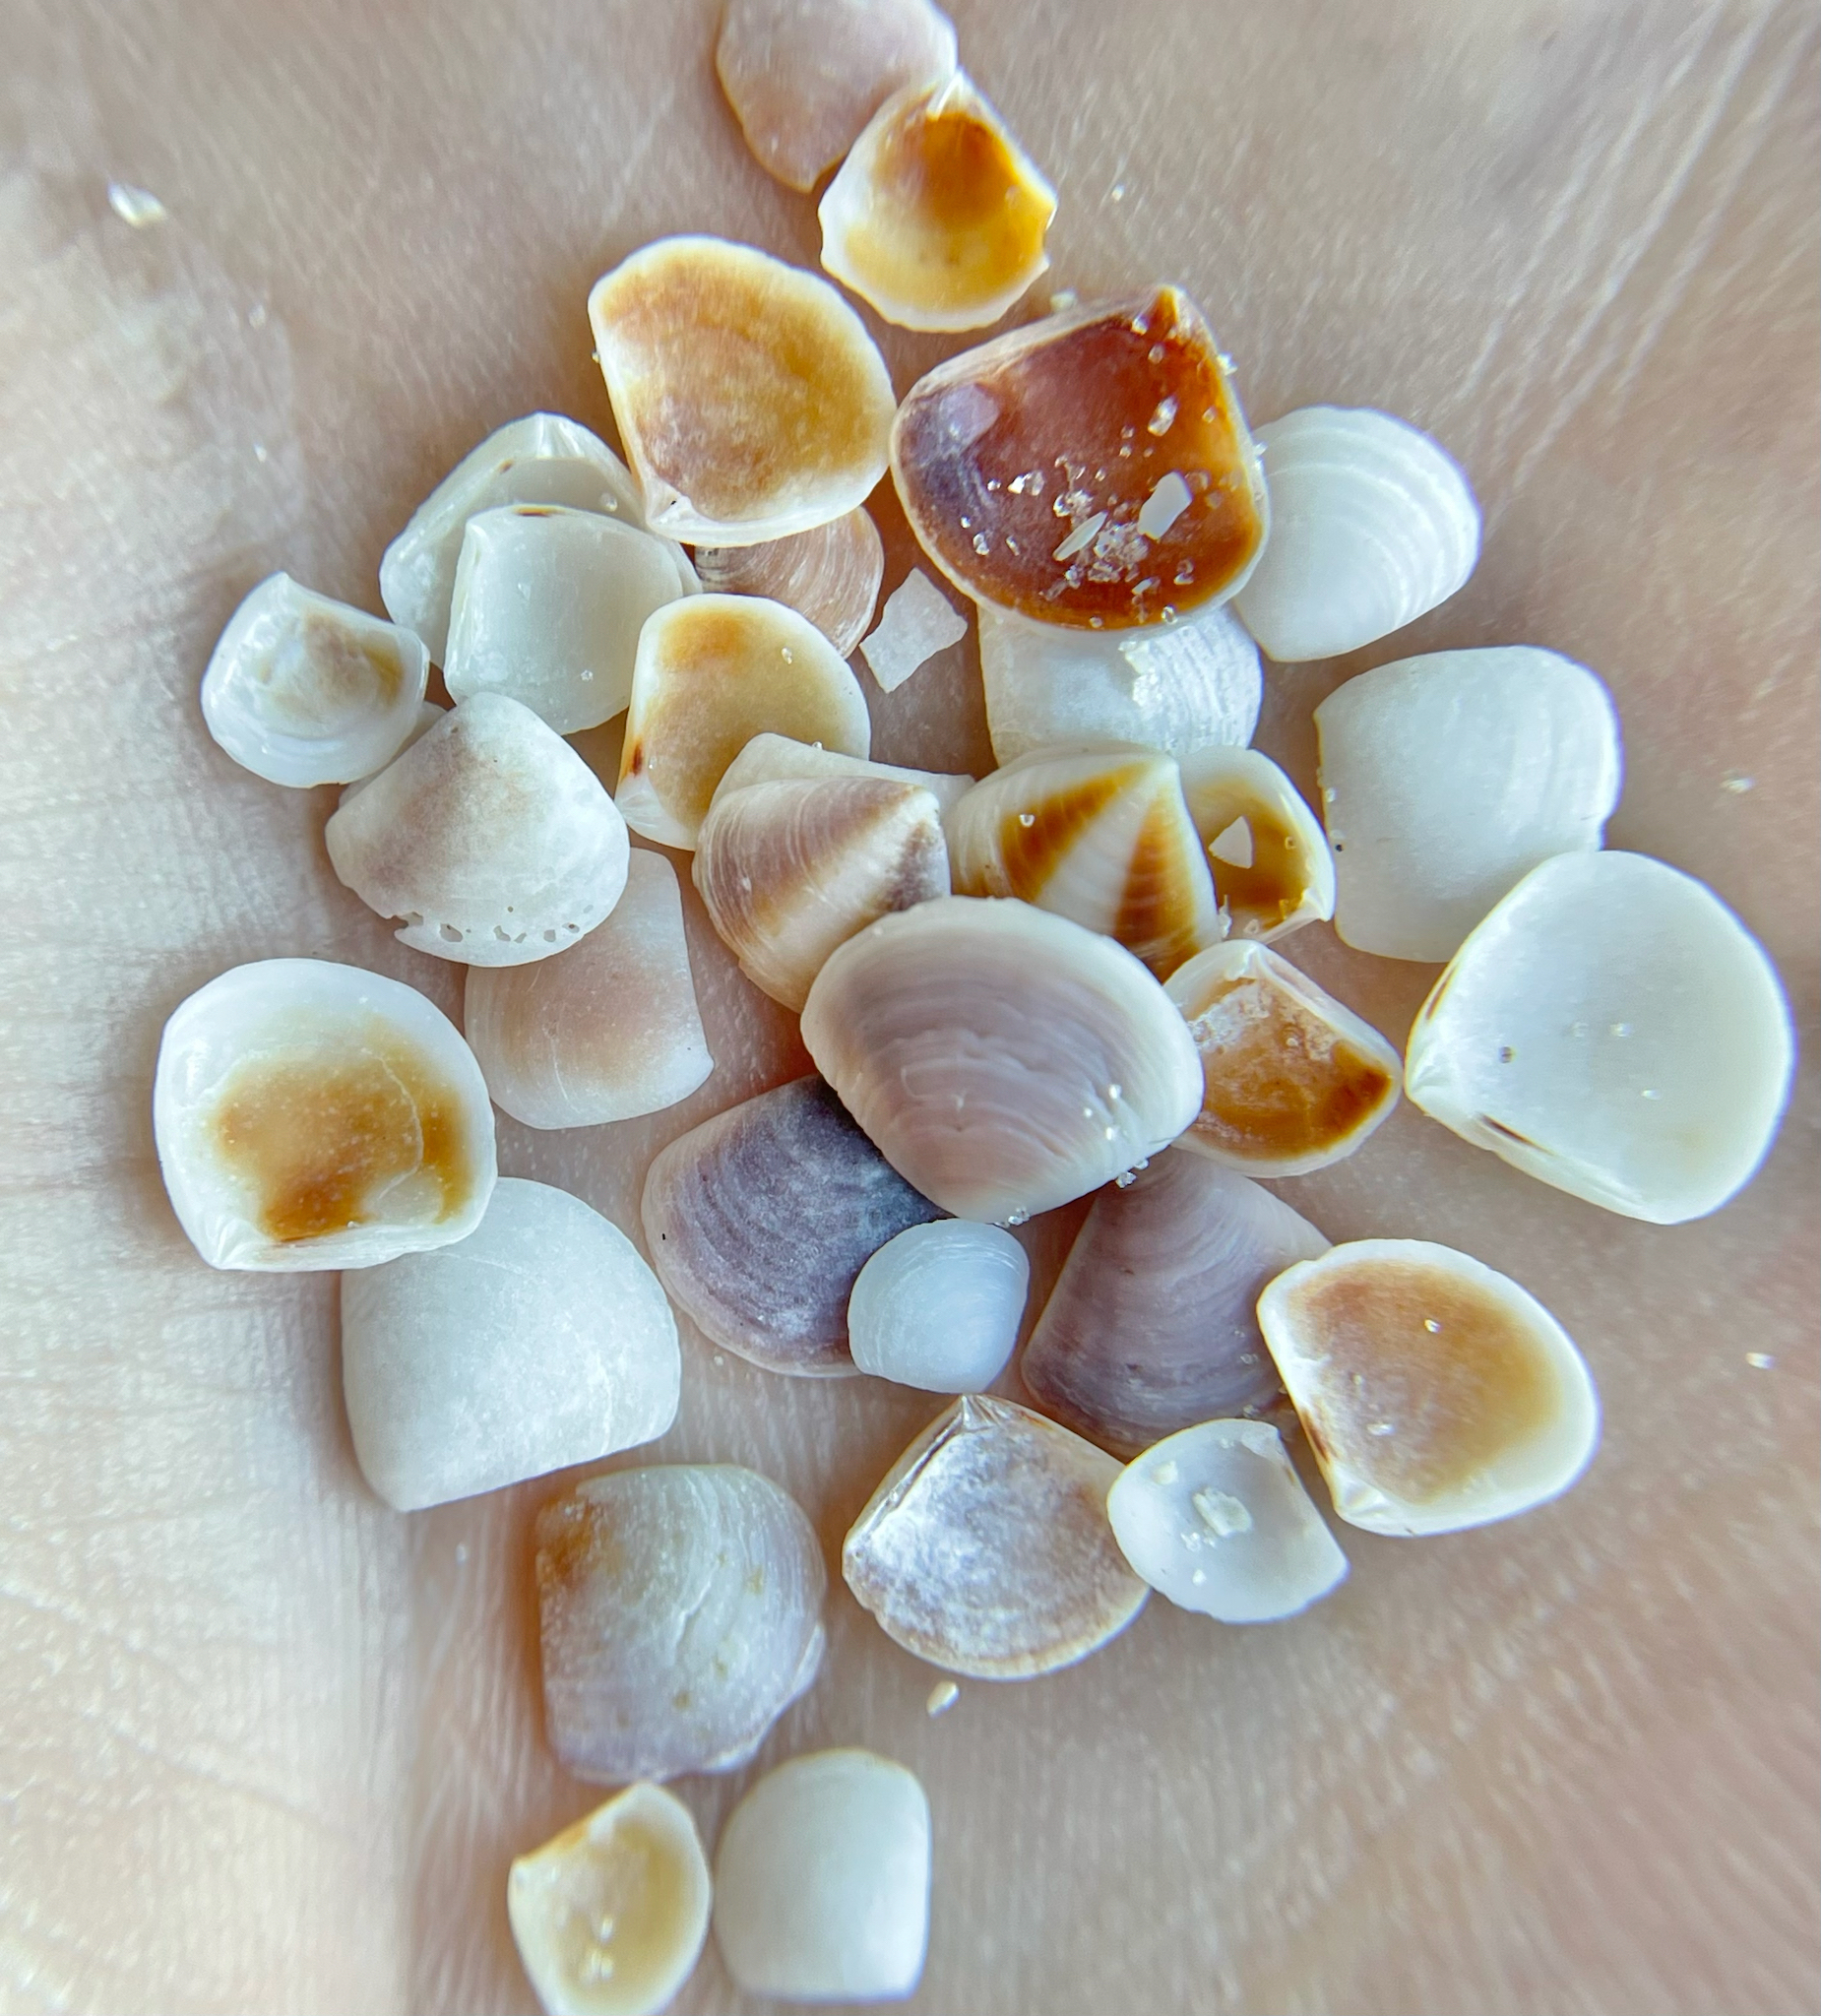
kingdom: Animalia
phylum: Mollusca
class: Bivalvia
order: Carditida
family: Crassatellidae
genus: Crassinella
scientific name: Crassinella lunulata
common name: Lunate crassinella
